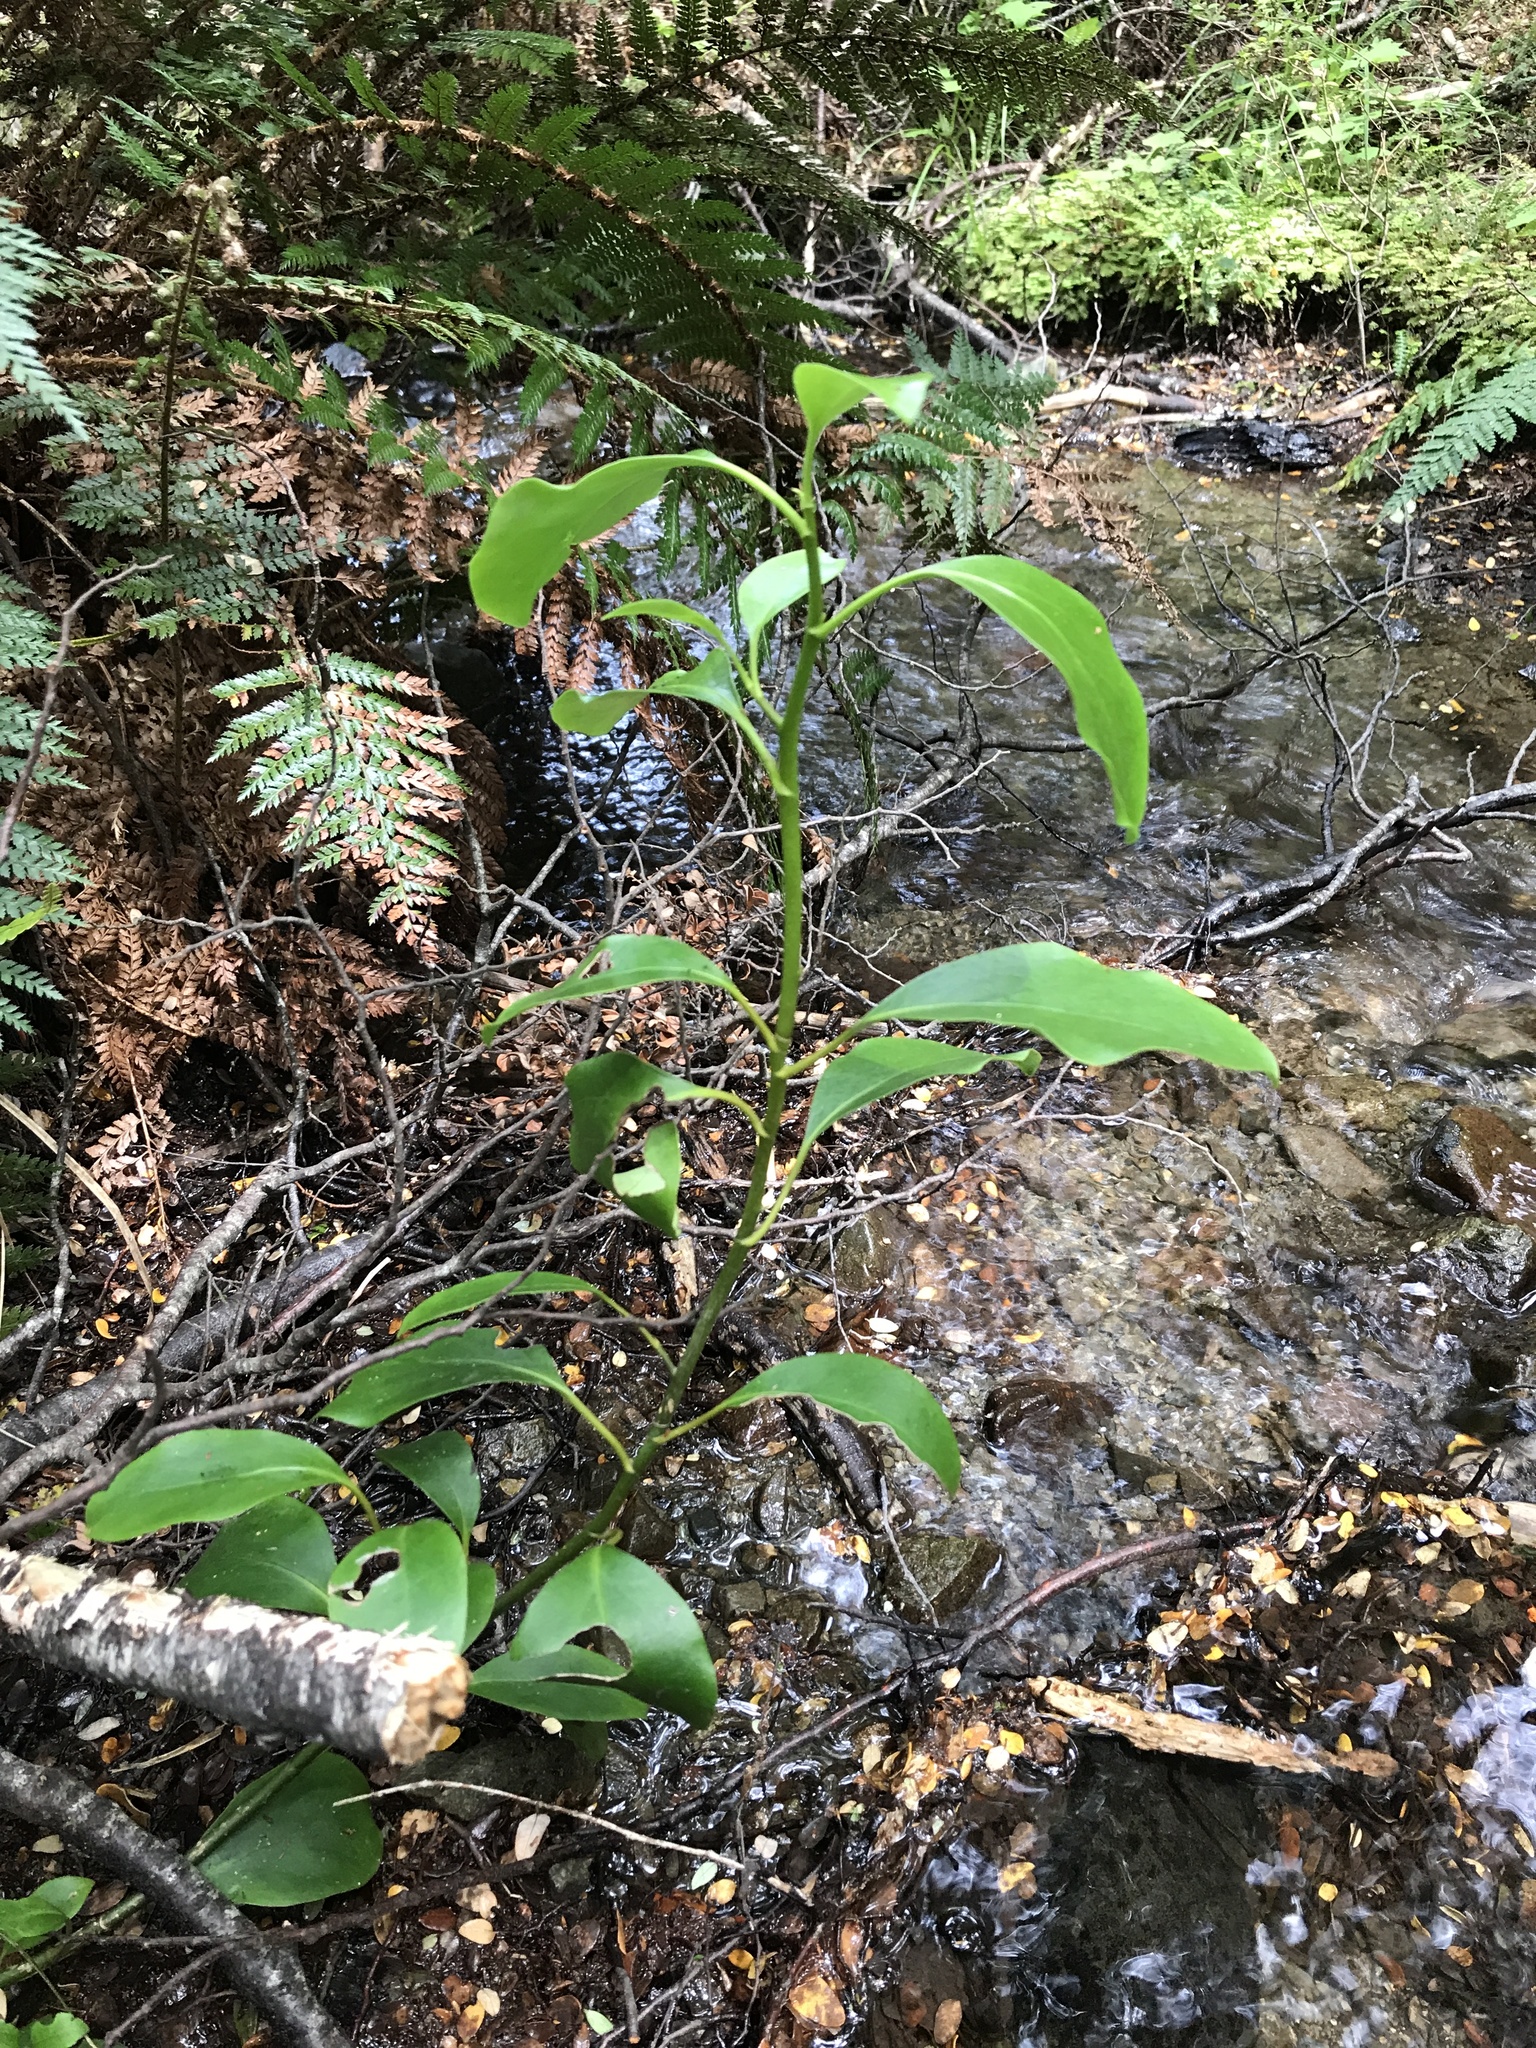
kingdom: Plantae
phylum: Tracheophyta
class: Magnoliopsida
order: Apiales
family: Griseliniaceae
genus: Griselinia
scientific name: Griselinia littoralis
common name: New zealand broadleaf
